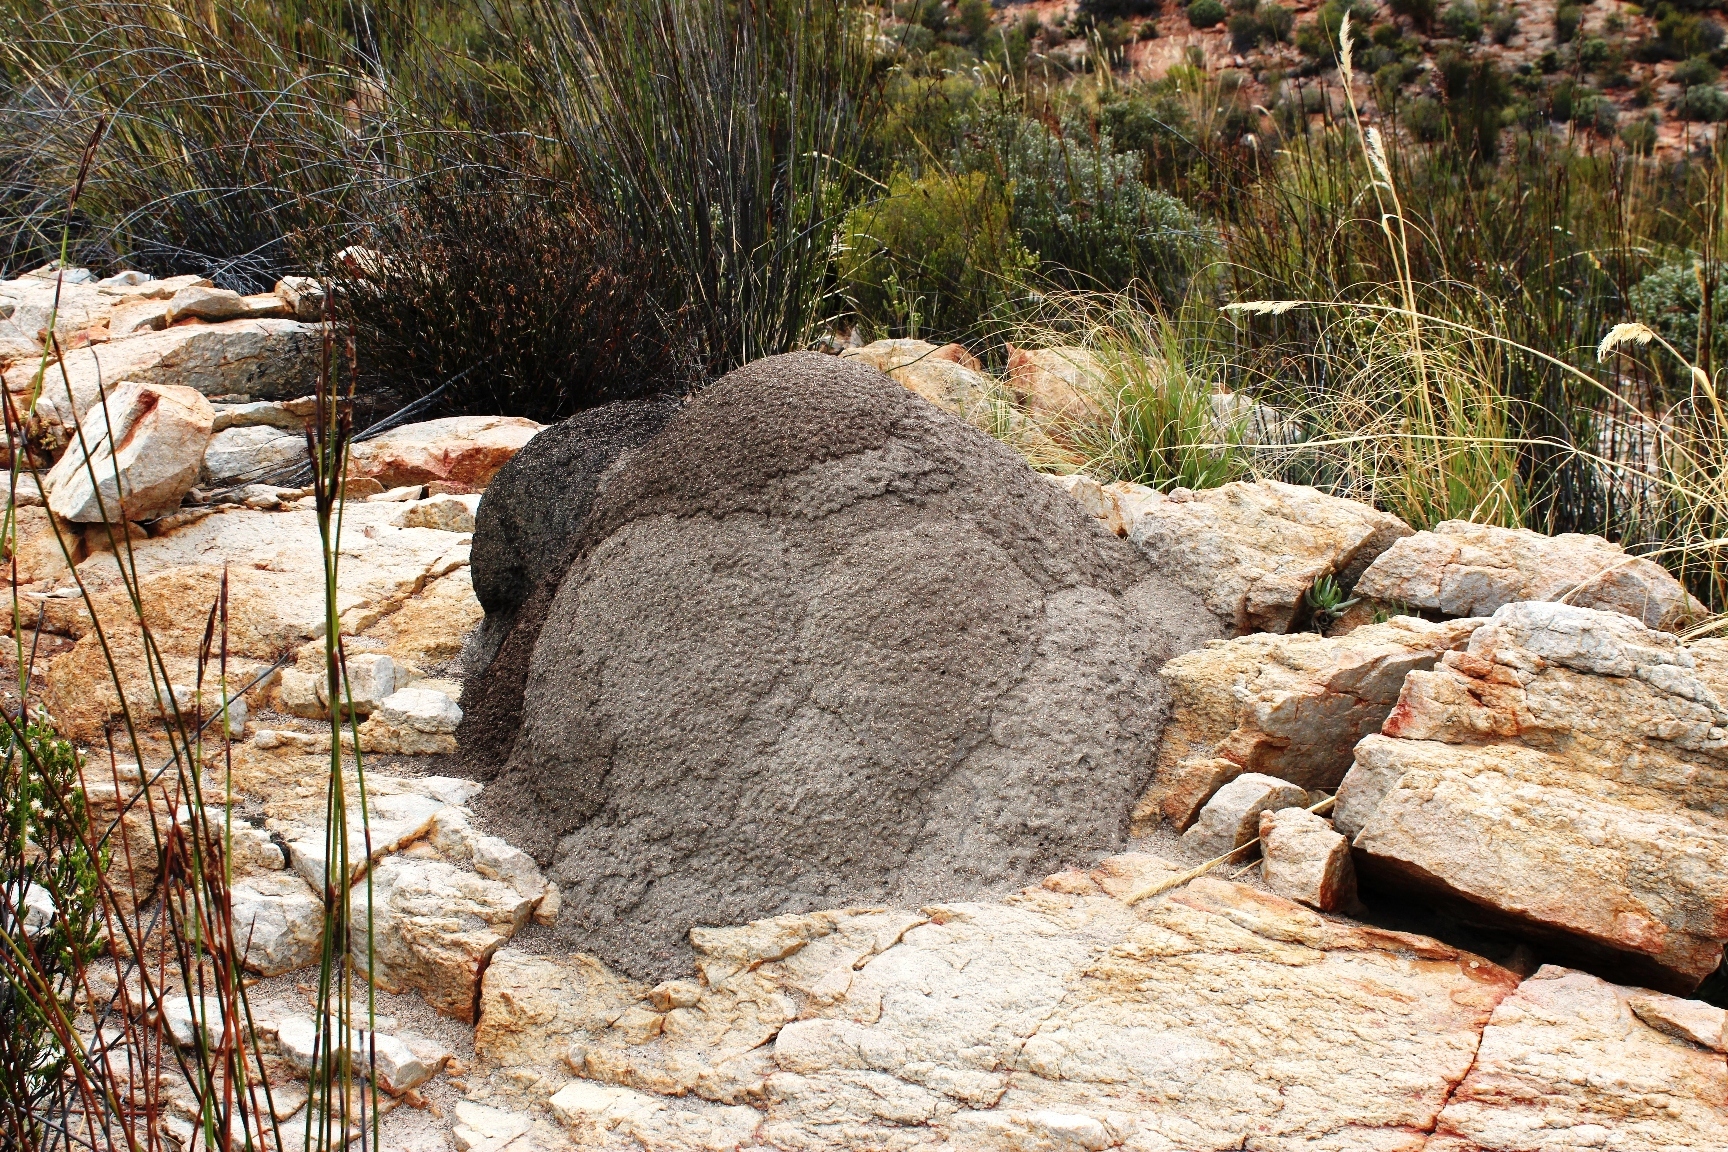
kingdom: Animalia
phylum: Arthropoda
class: Insecta
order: Blattodea
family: Termitidae
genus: Amitermes
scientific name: Amitermes hastatus
